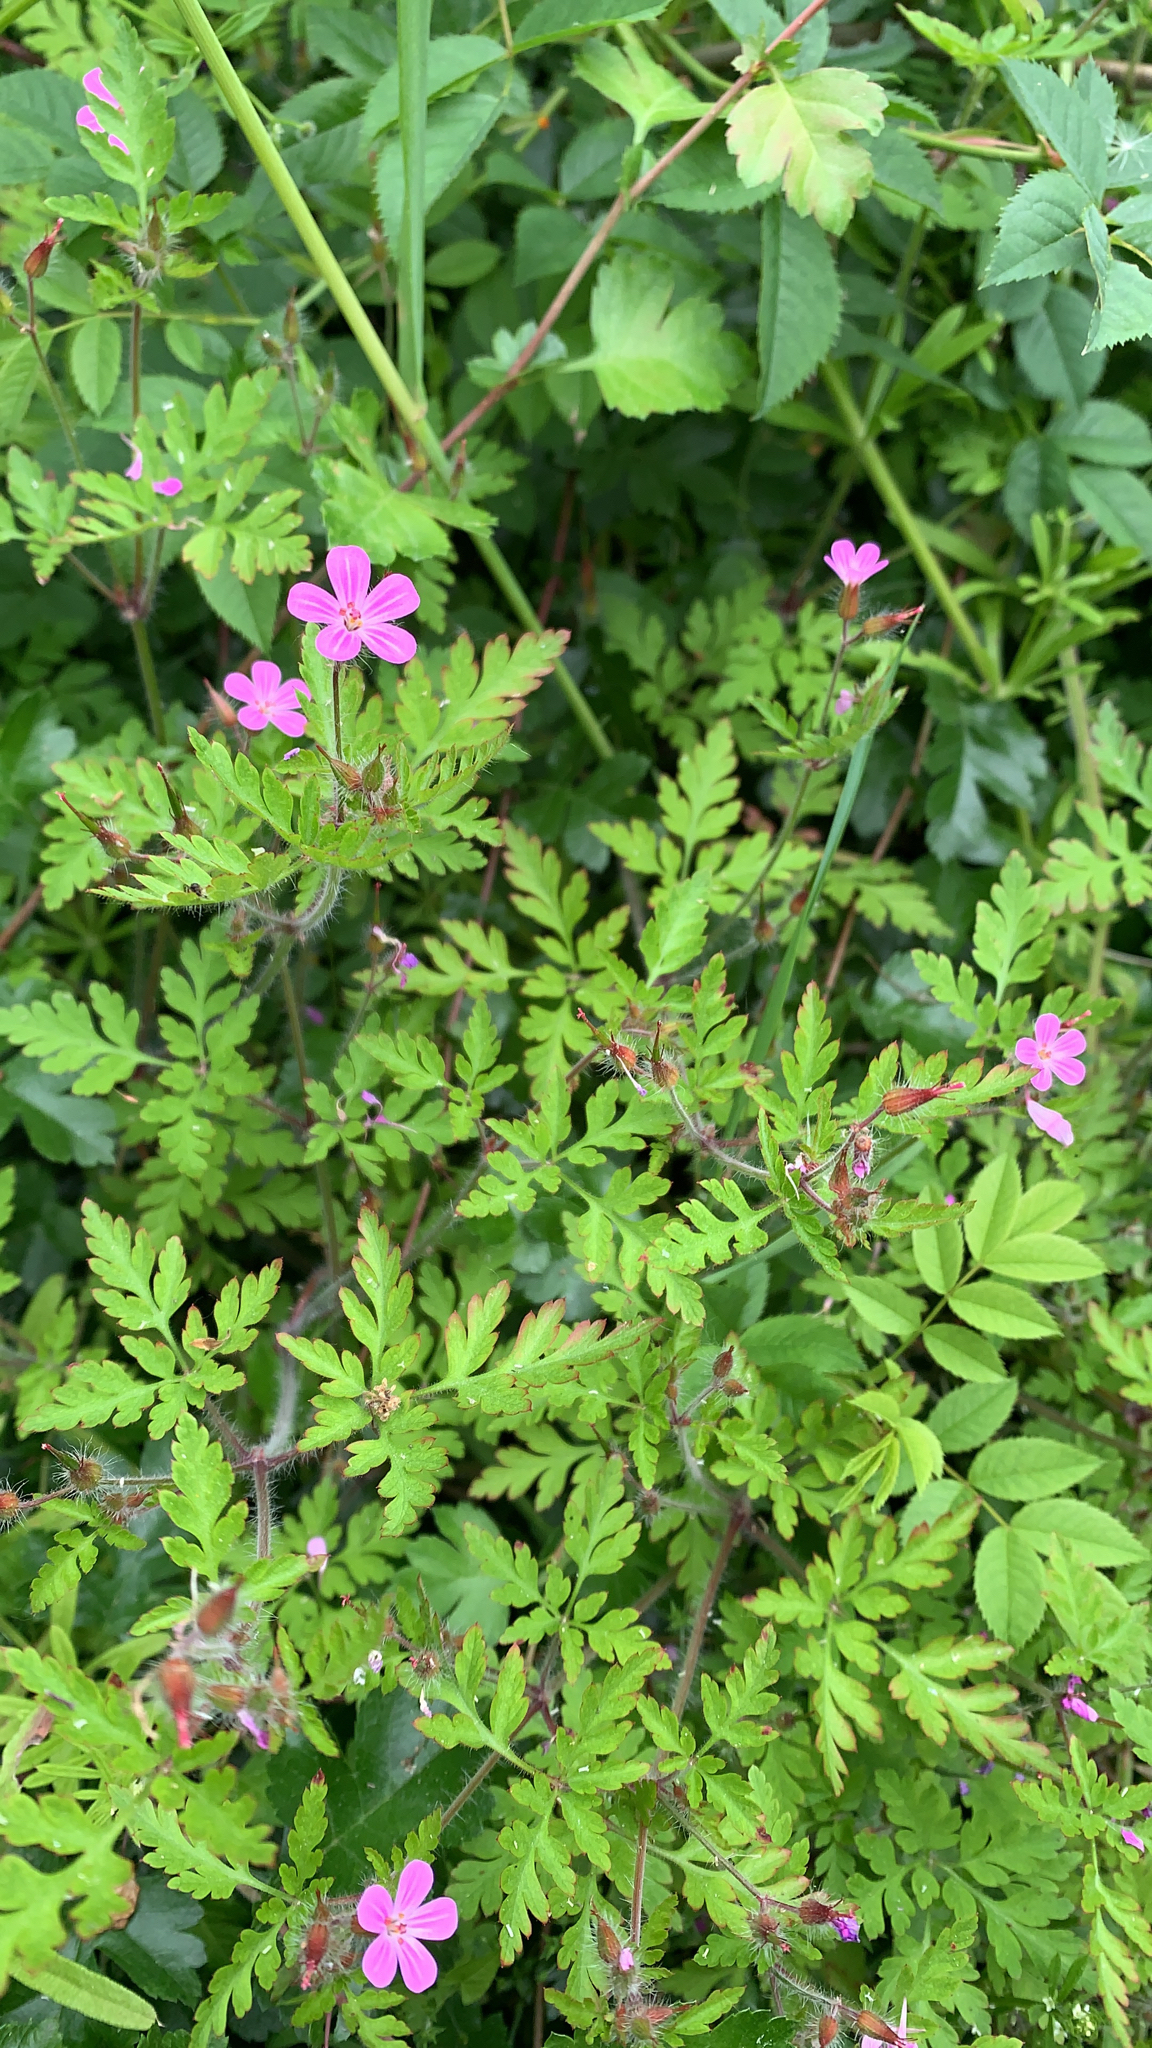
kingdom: Plantae
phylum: Tracheophyta
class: Magnoliopsida
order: Geraniales
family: Geraniaceae
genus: Geranium
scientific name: Geranium robertianum
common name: Herb-robert
